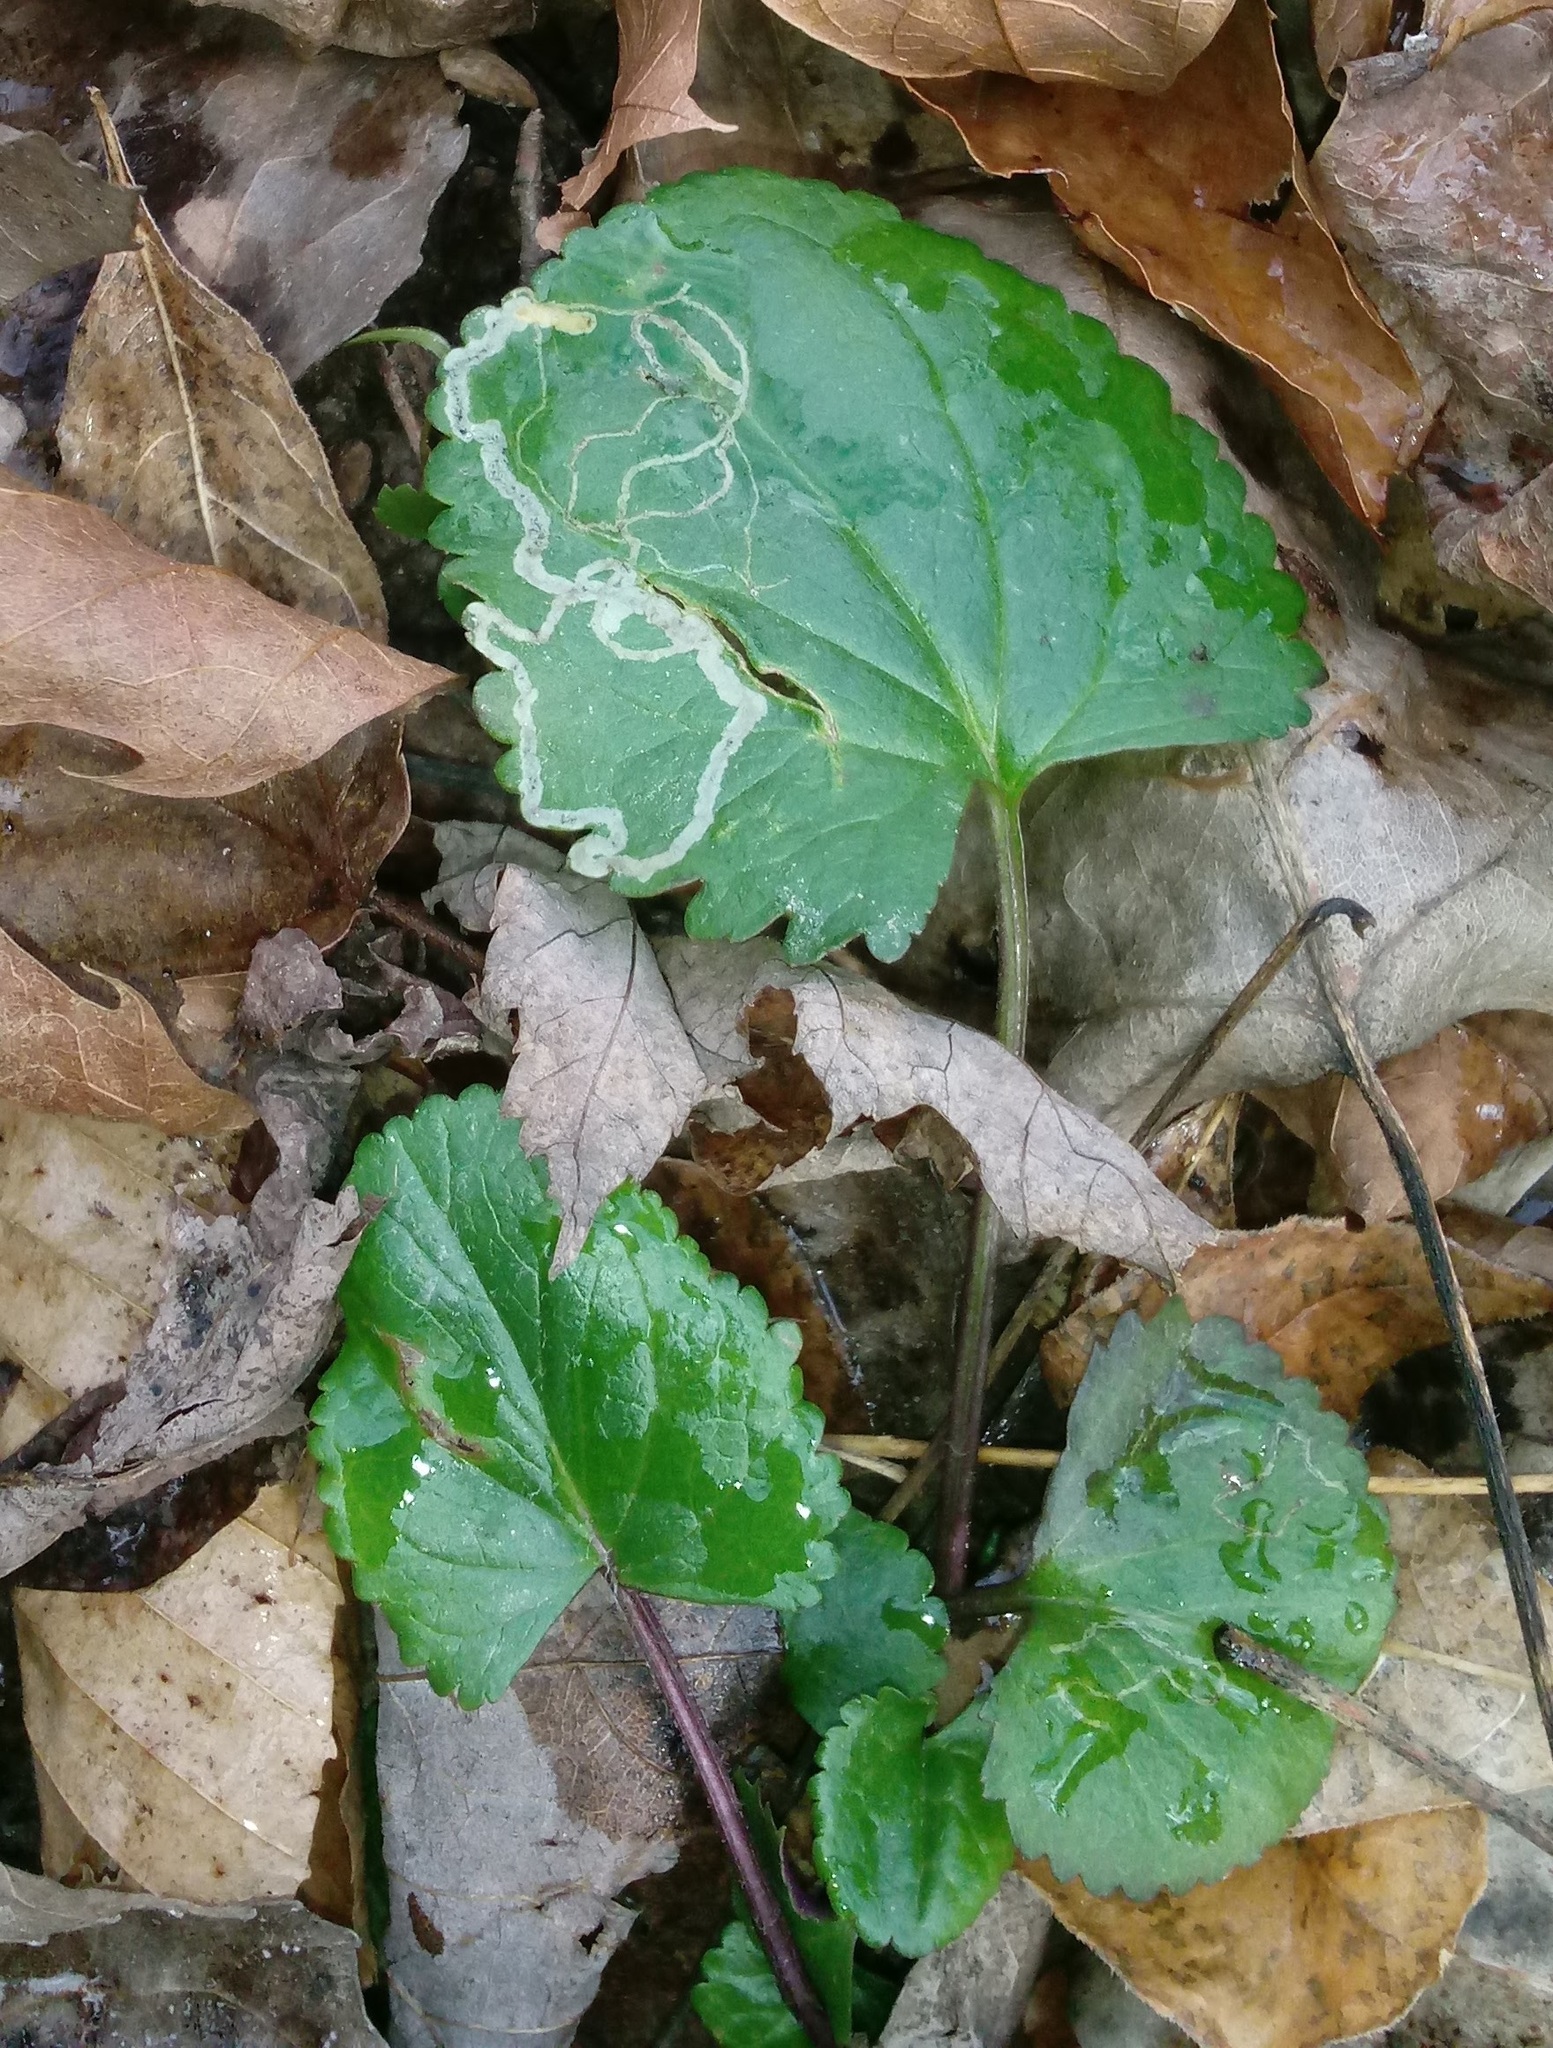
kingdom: Animalia
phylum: Arthropoda
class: Insecta
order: Lepidoptera
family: Gracillariidae
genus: Phyllocnistis
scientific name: Phyllocnistis insignis
